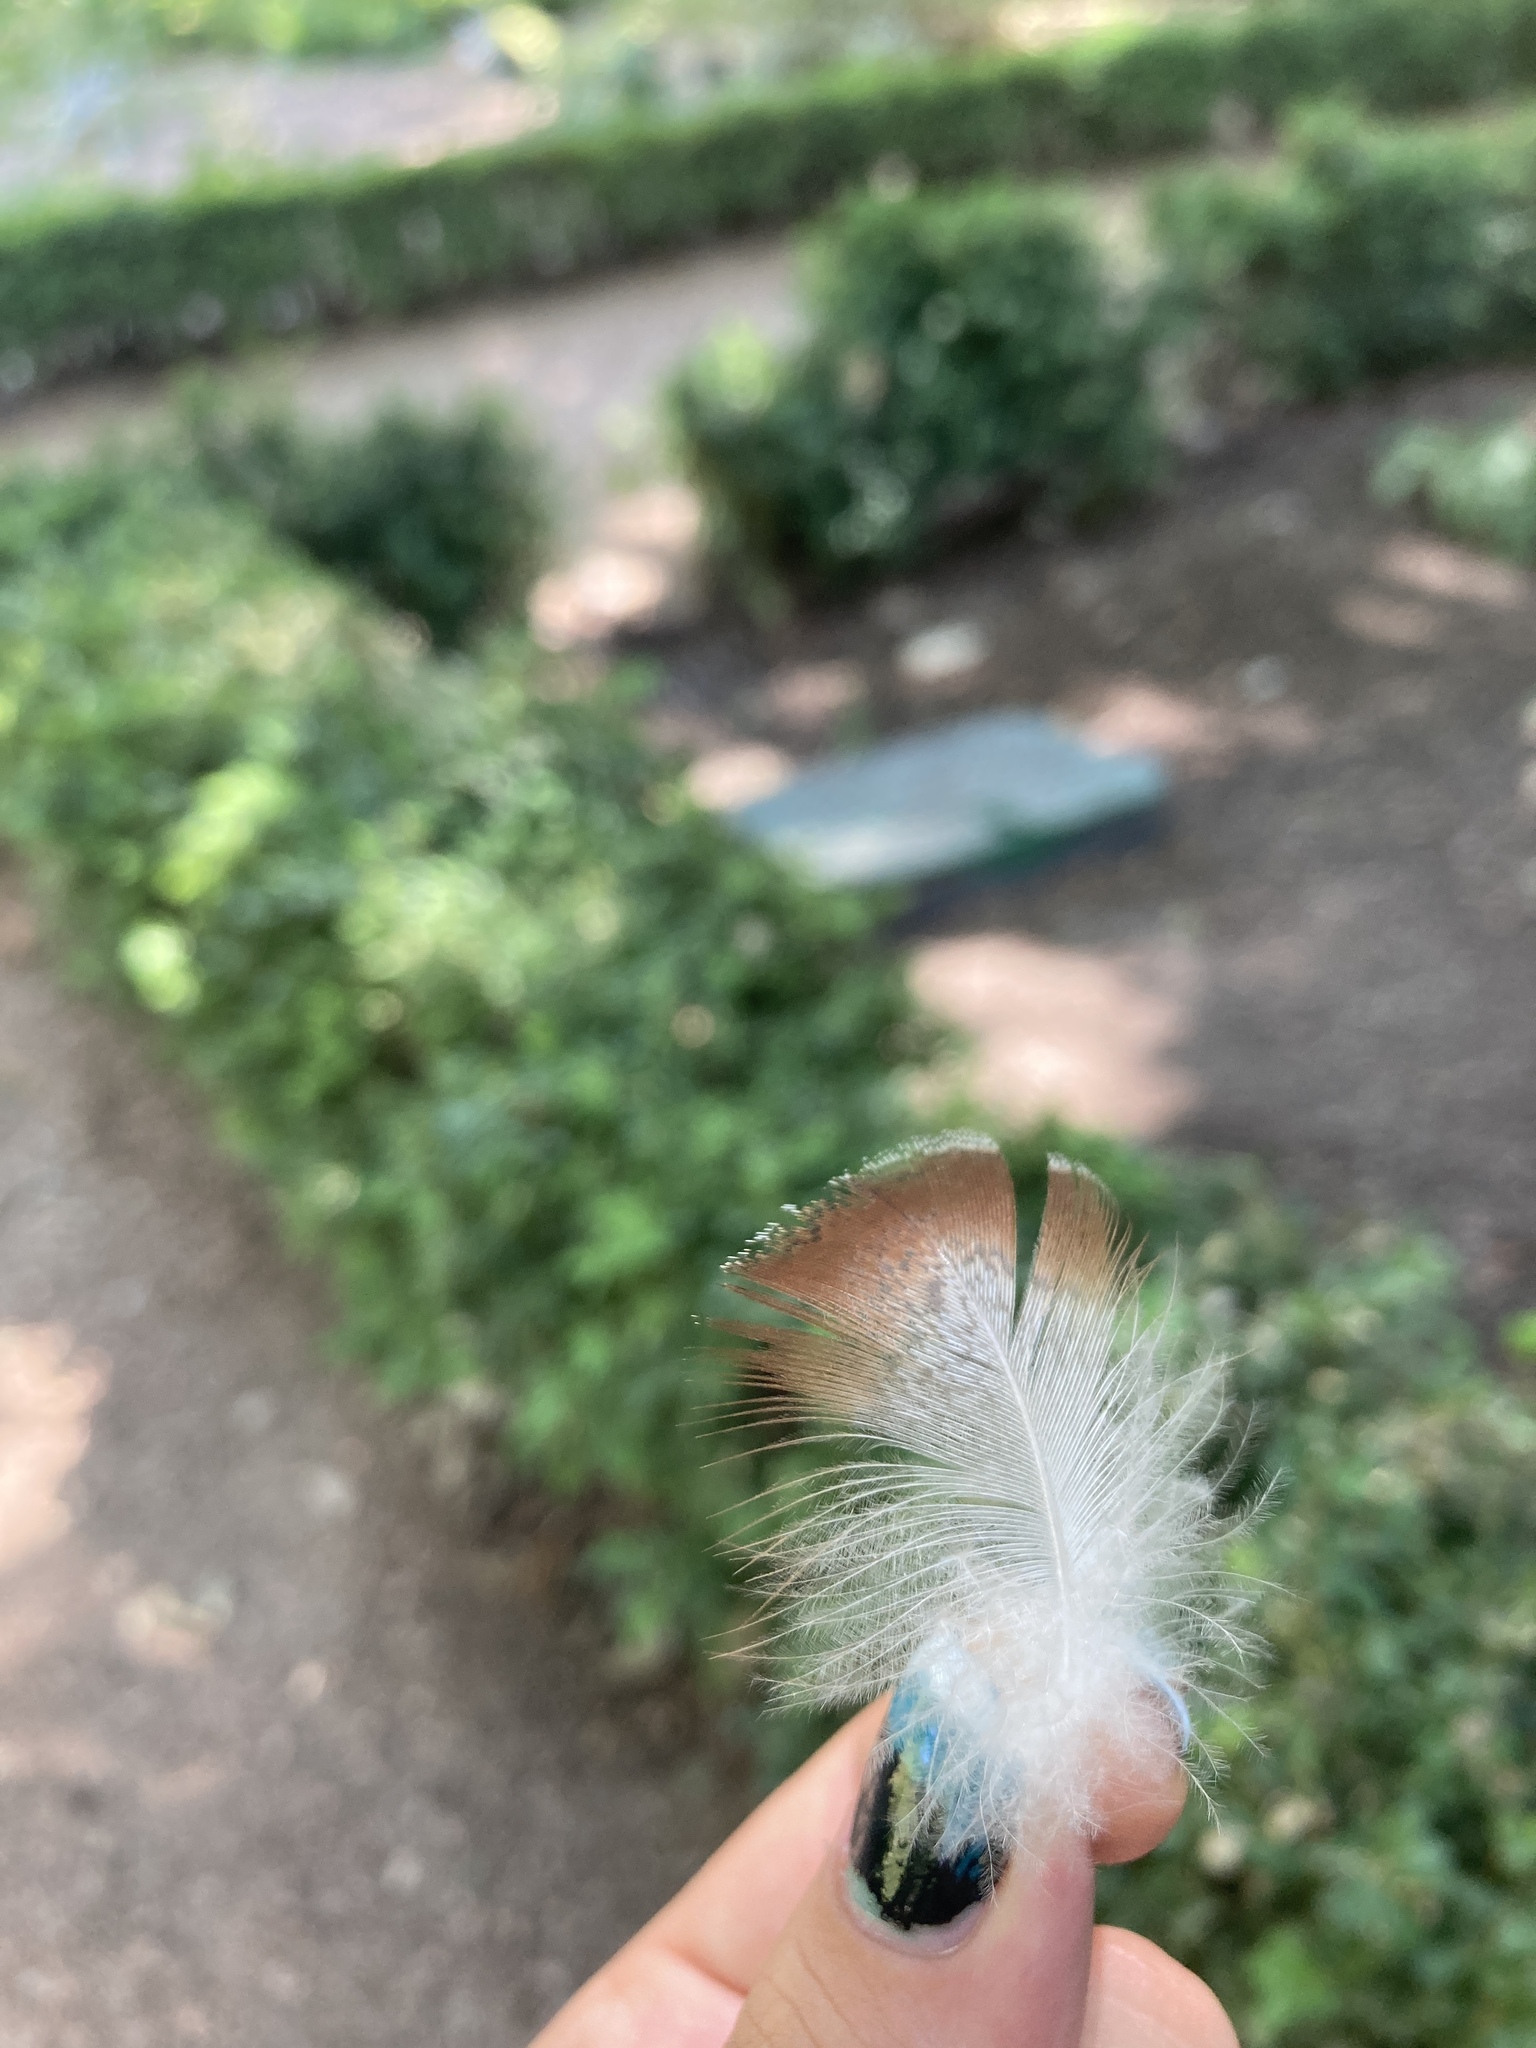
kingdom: Animalia
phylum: Chordata
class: Aves
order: Anseriformes
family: Anatidae
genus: Anas
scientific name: Anas platyrhynchos
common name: Mallard
